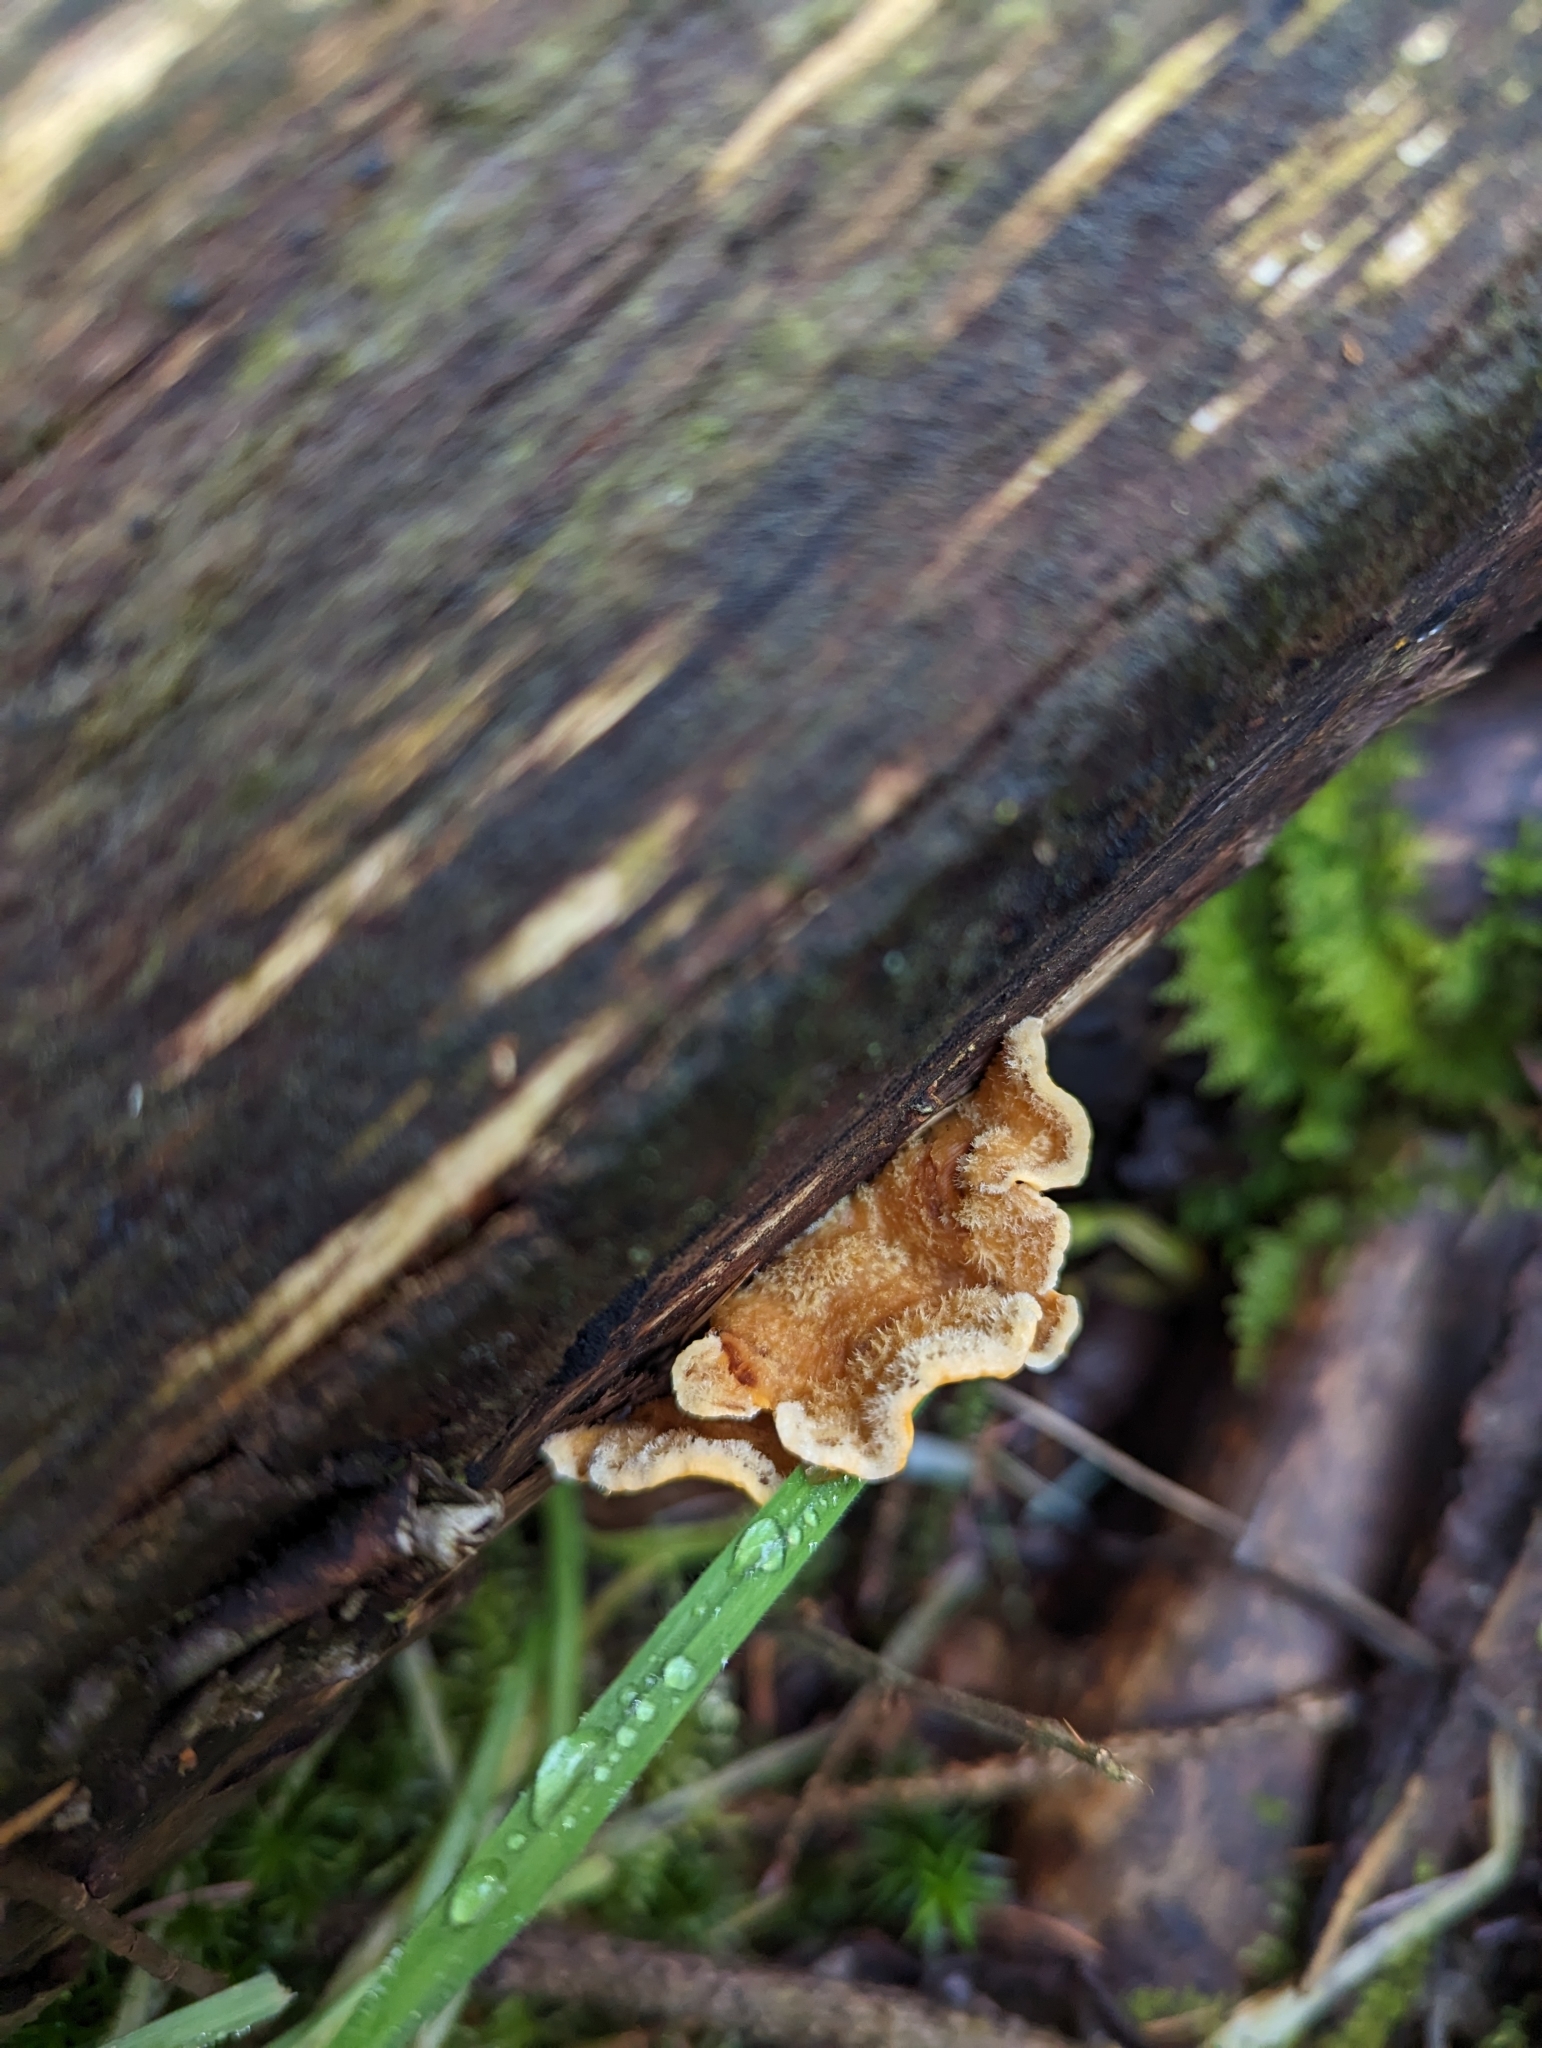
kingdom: Fungi
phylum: Basidiomycota
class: Agaricomycetes
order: Russulales
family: Stereaceae
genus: Stereum
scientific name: Stereum hirsutum
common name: Hairy curtain crust
